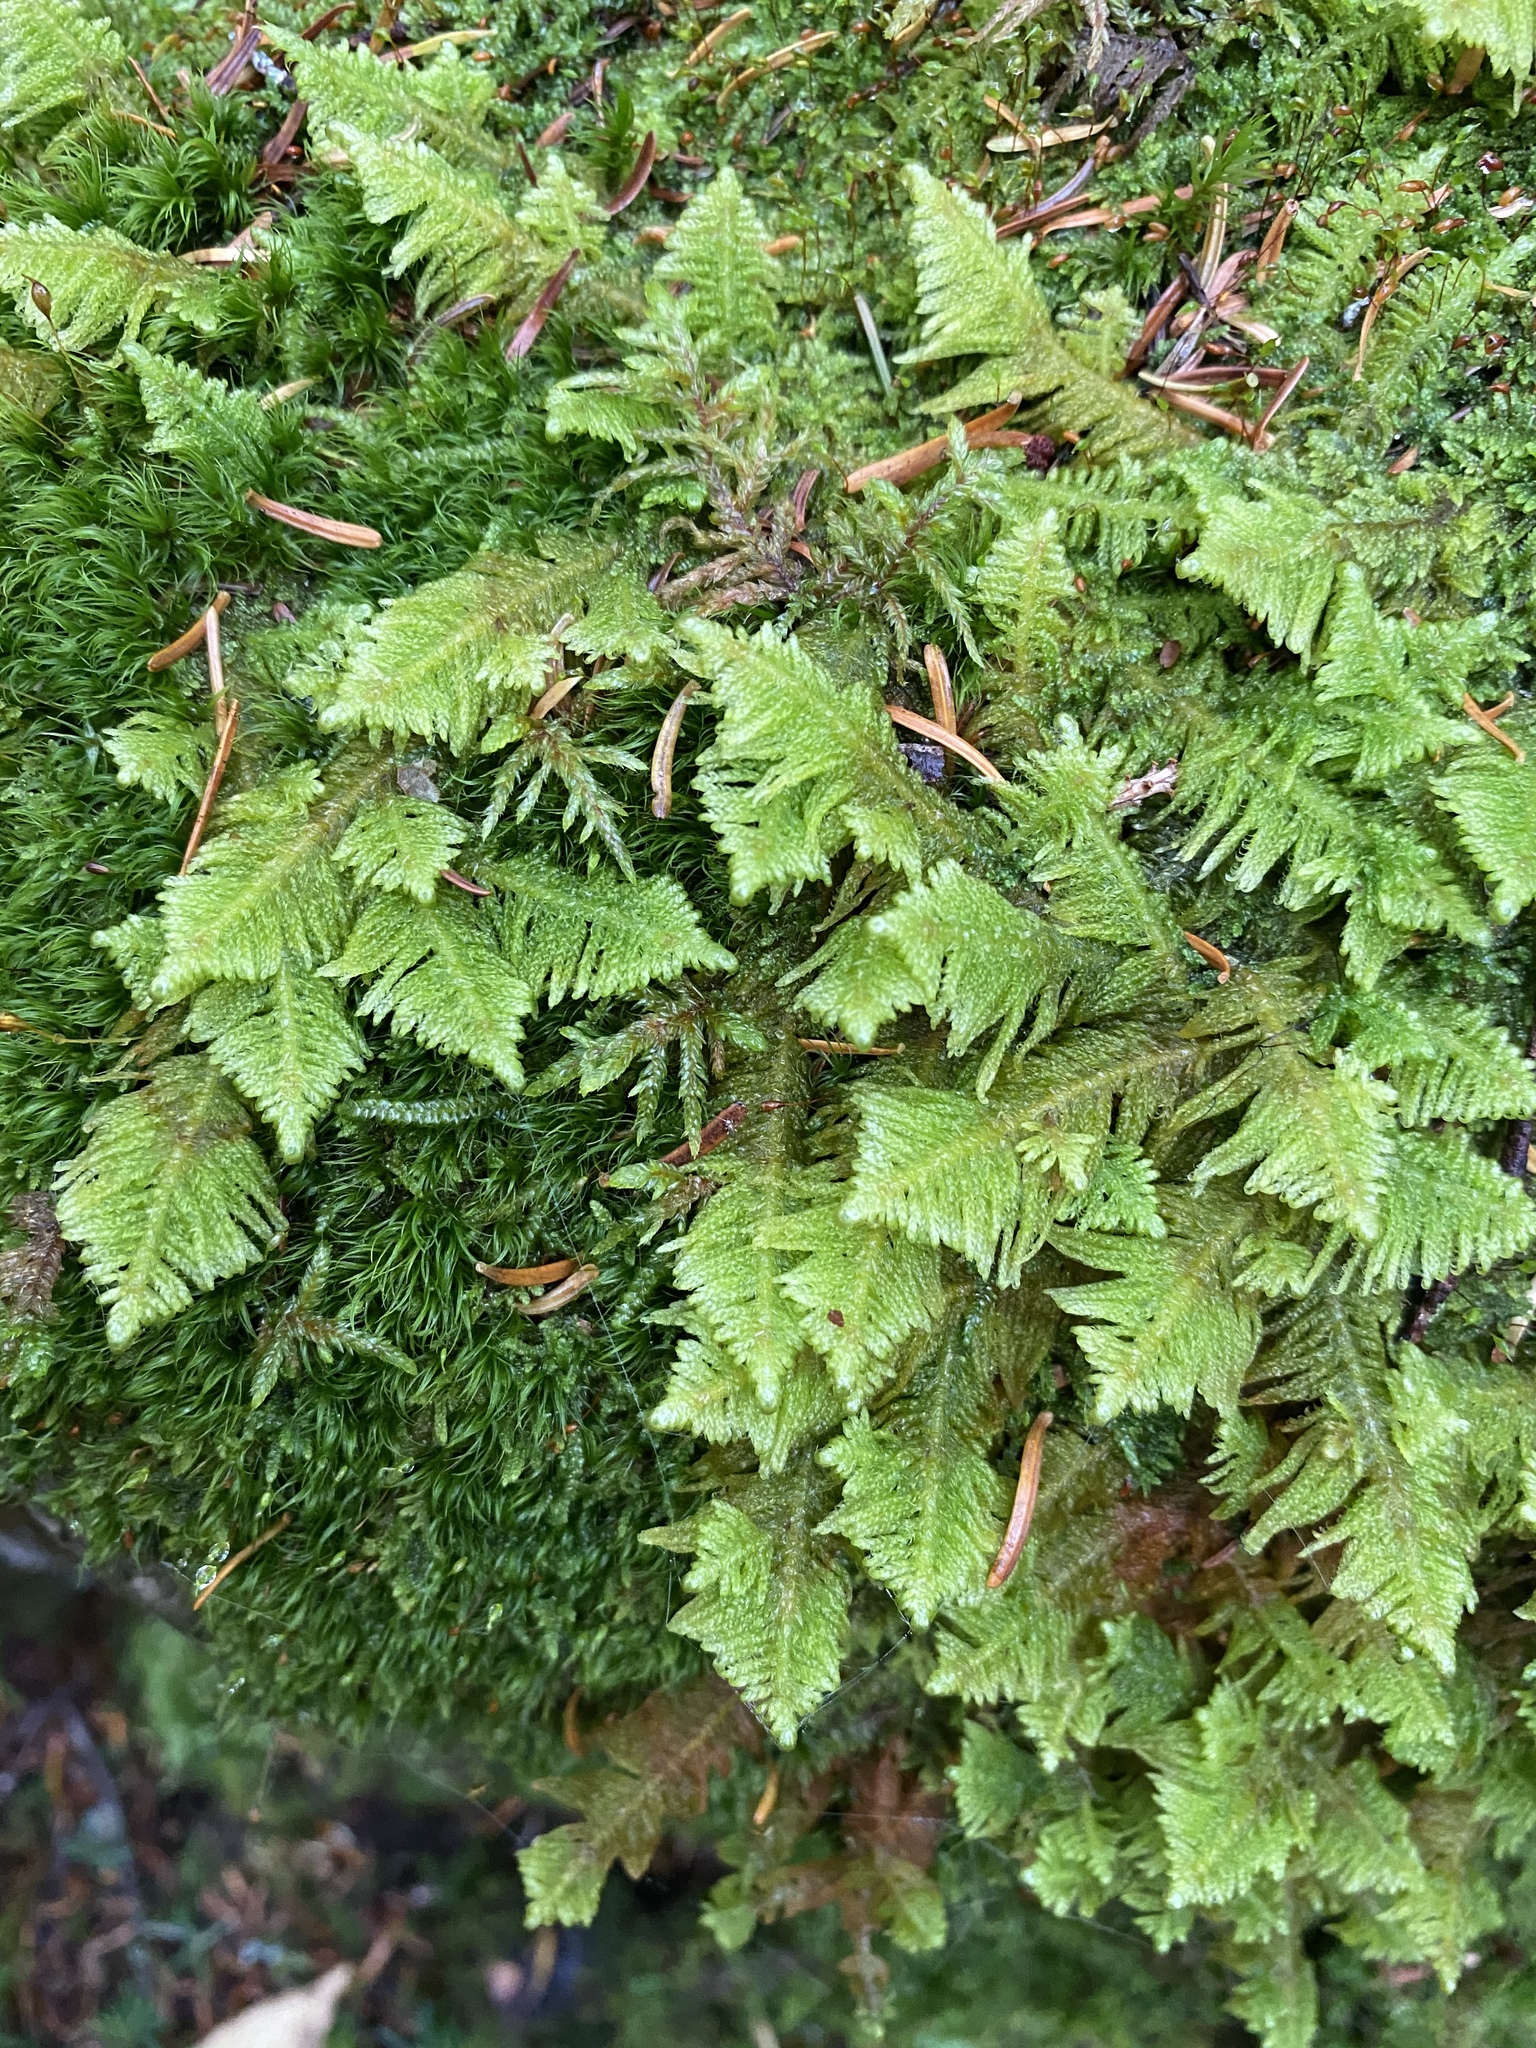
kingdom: Plantae
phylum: Bryophyta
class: Bryopsida
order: Hypnales
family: Pylaisiaceae
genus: Ptilium
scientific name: Ptilium crista-castrensis
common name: Knight's plume moss
